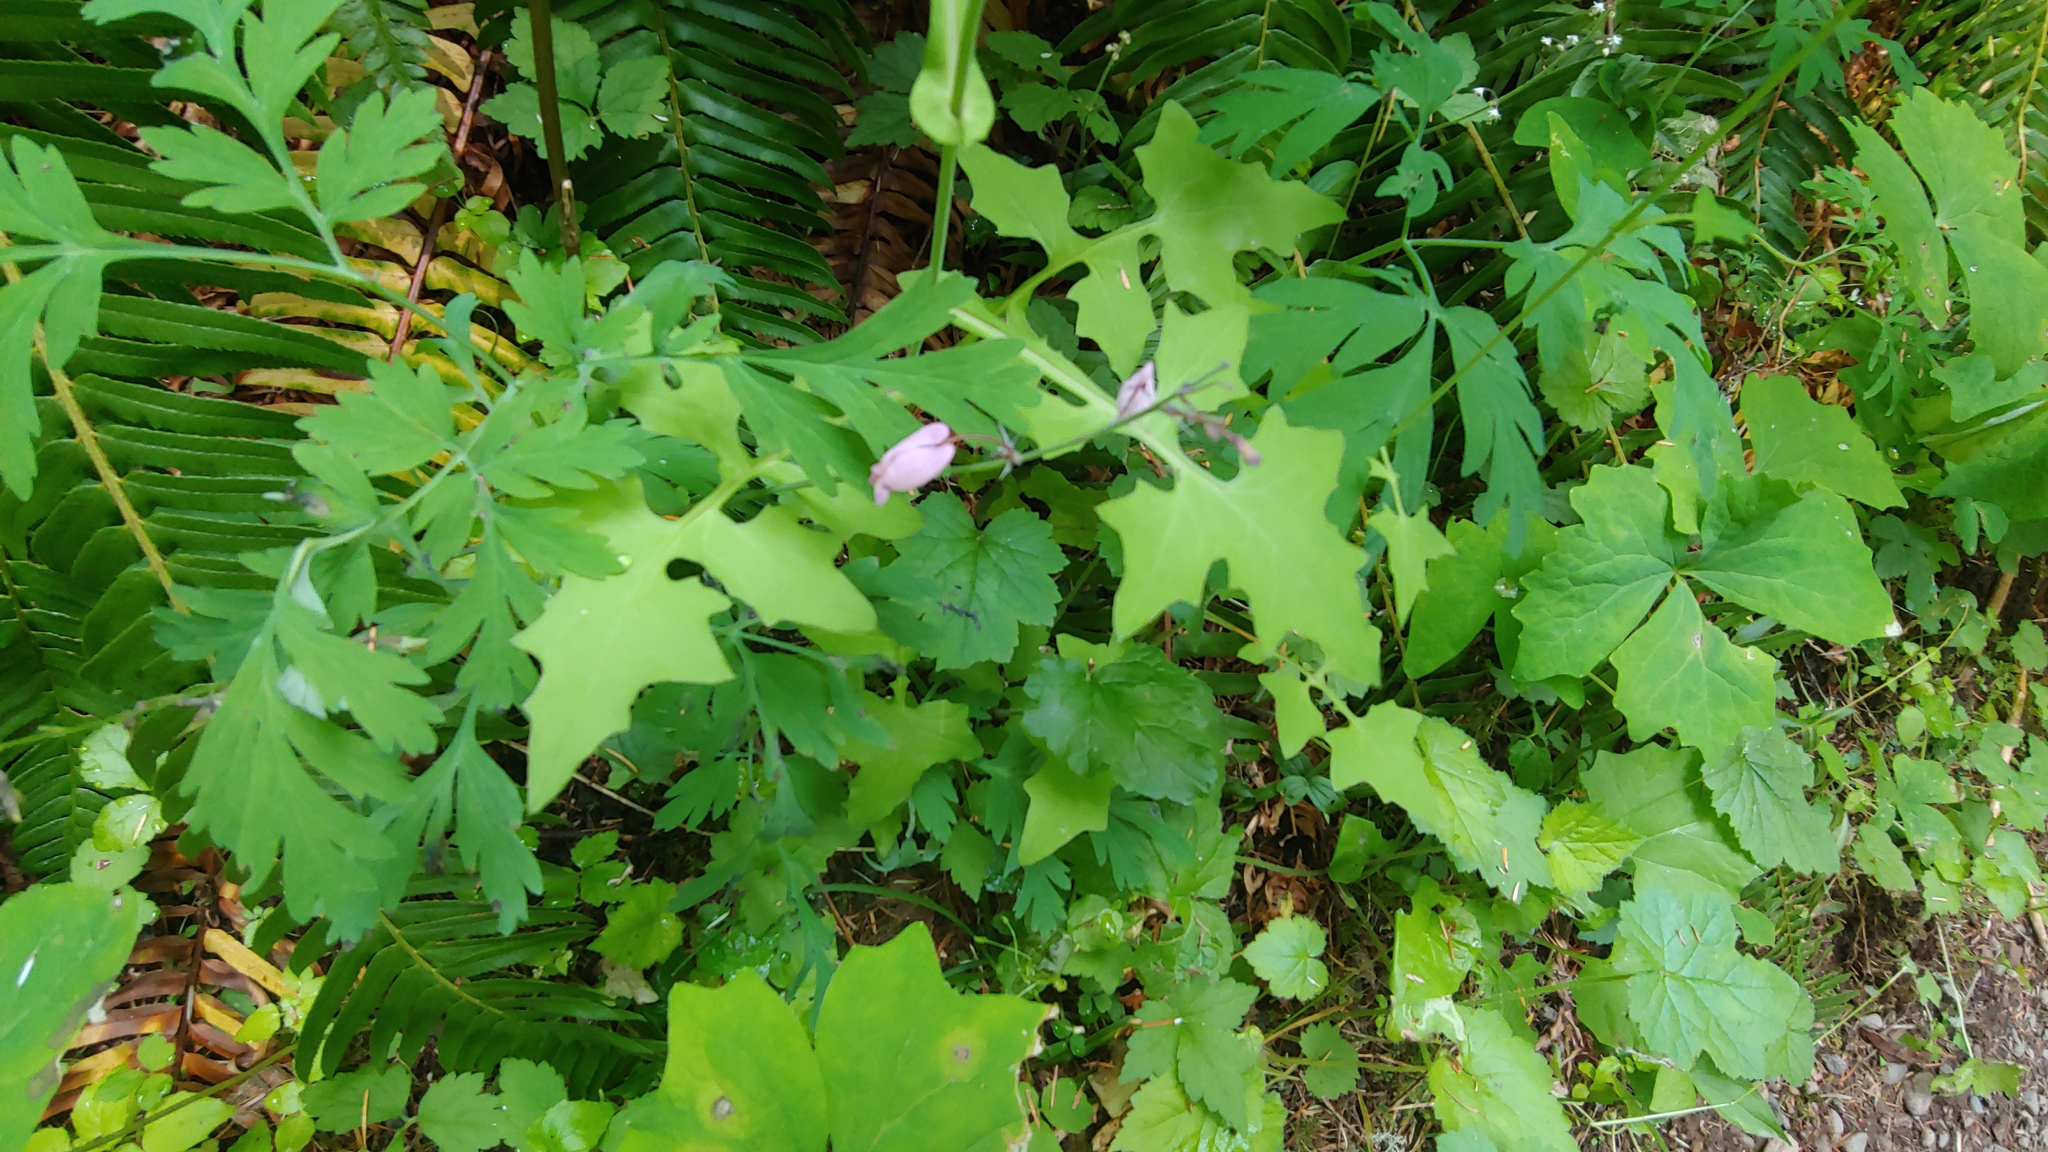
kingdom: Plantae
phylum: Tracheophyta
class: Magnoliopsida
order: Asterales
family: Asteraceae
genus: Mycelis
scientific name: Mycelis muralis
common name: Wall lettuce
